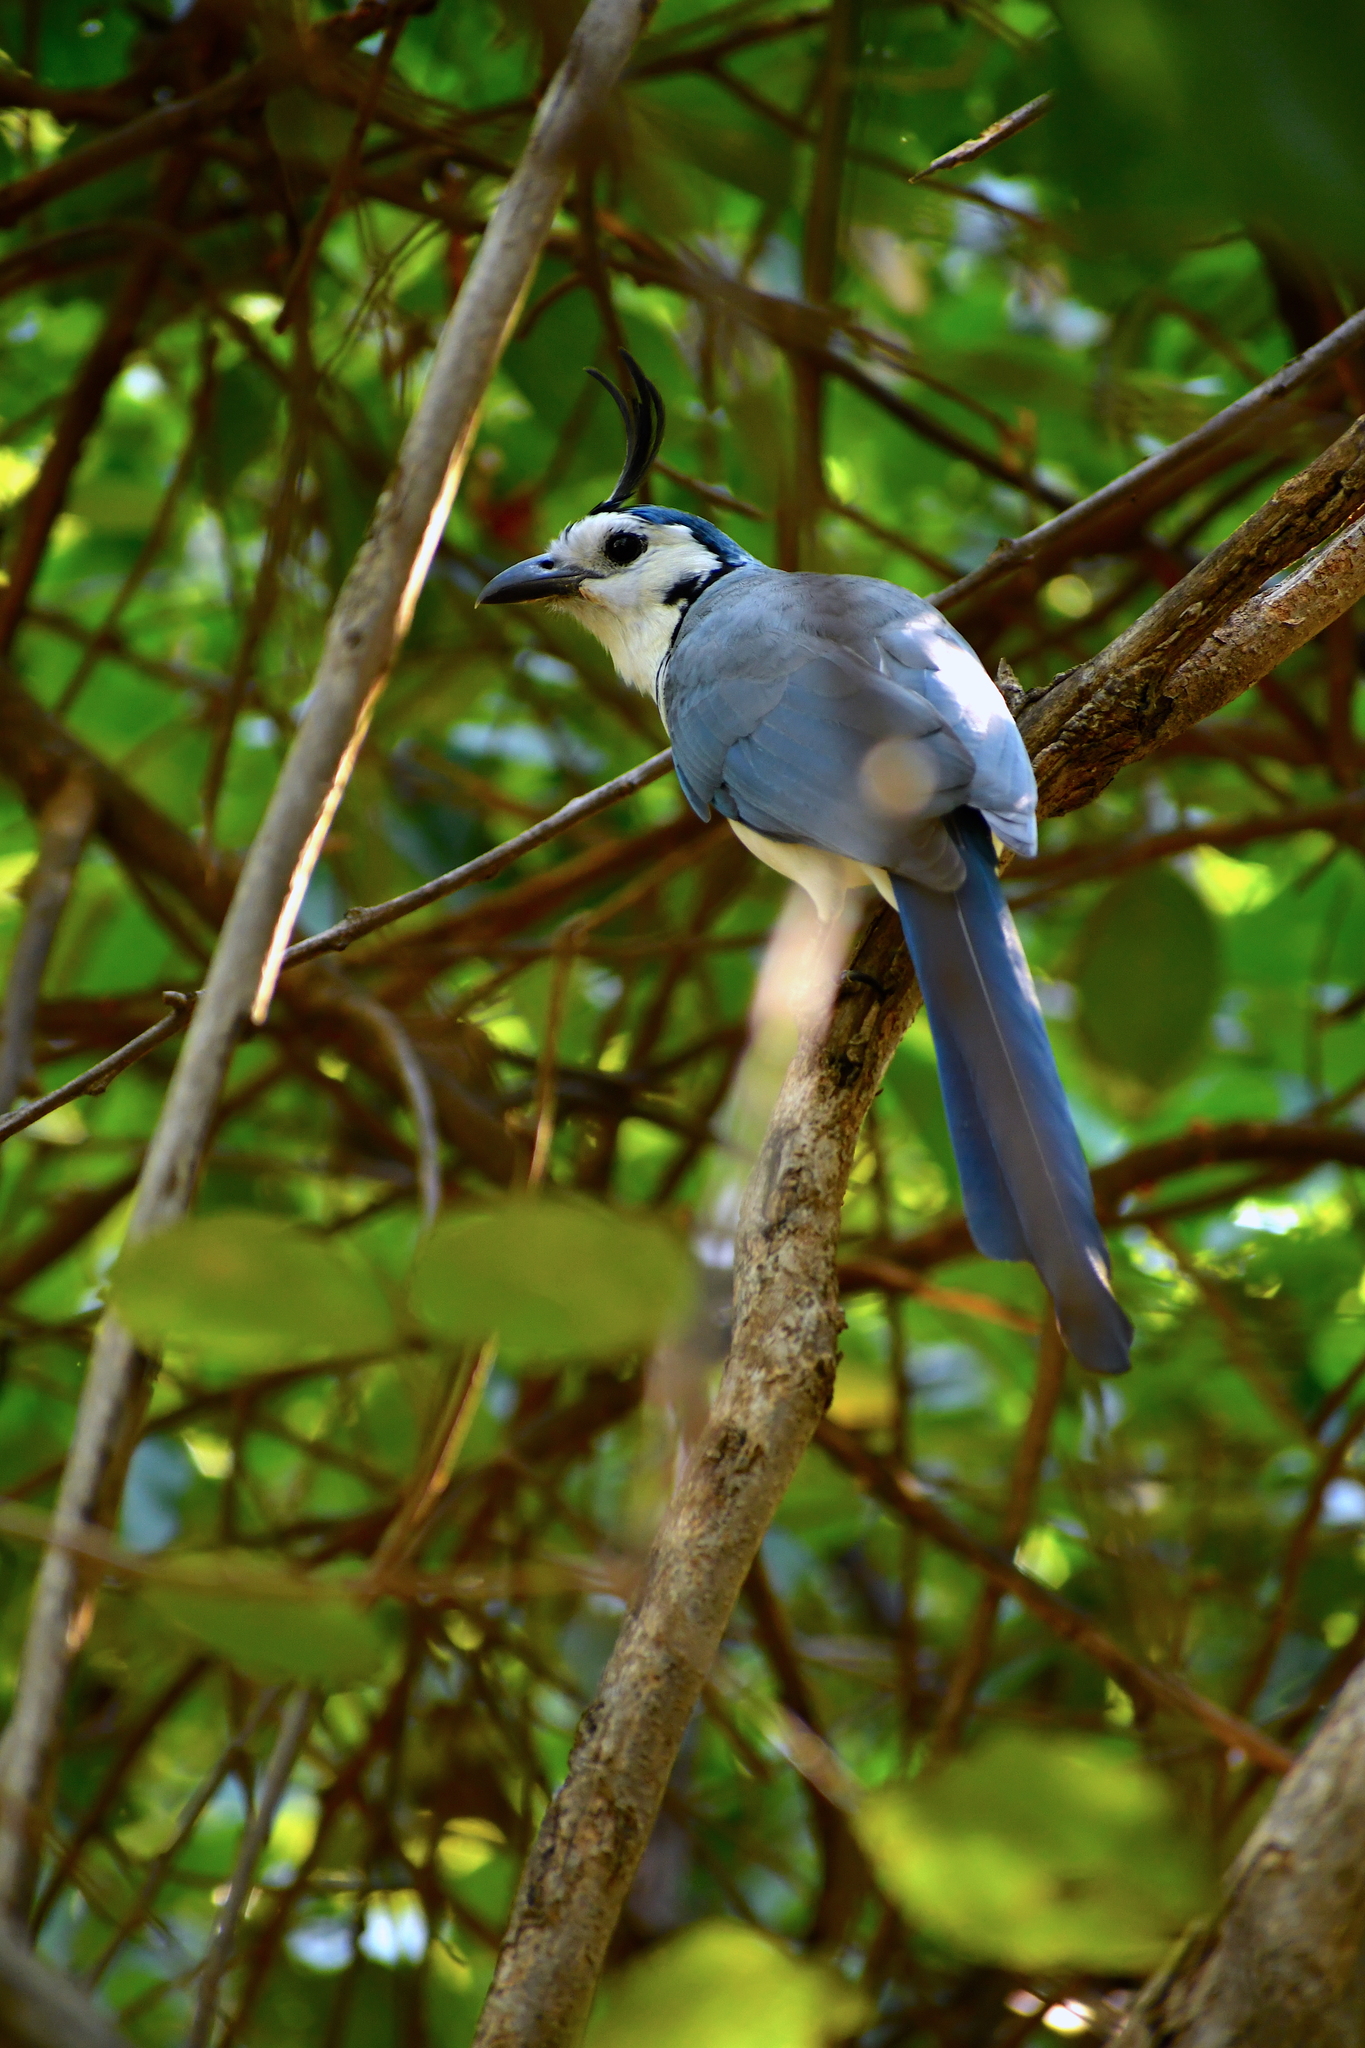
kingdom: Animalia
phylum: Chordata
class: Aves
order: Passeriformes
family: Corvidae
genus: Calocitta
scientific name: Calocitta formosa
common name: White-throated magpie-jay
